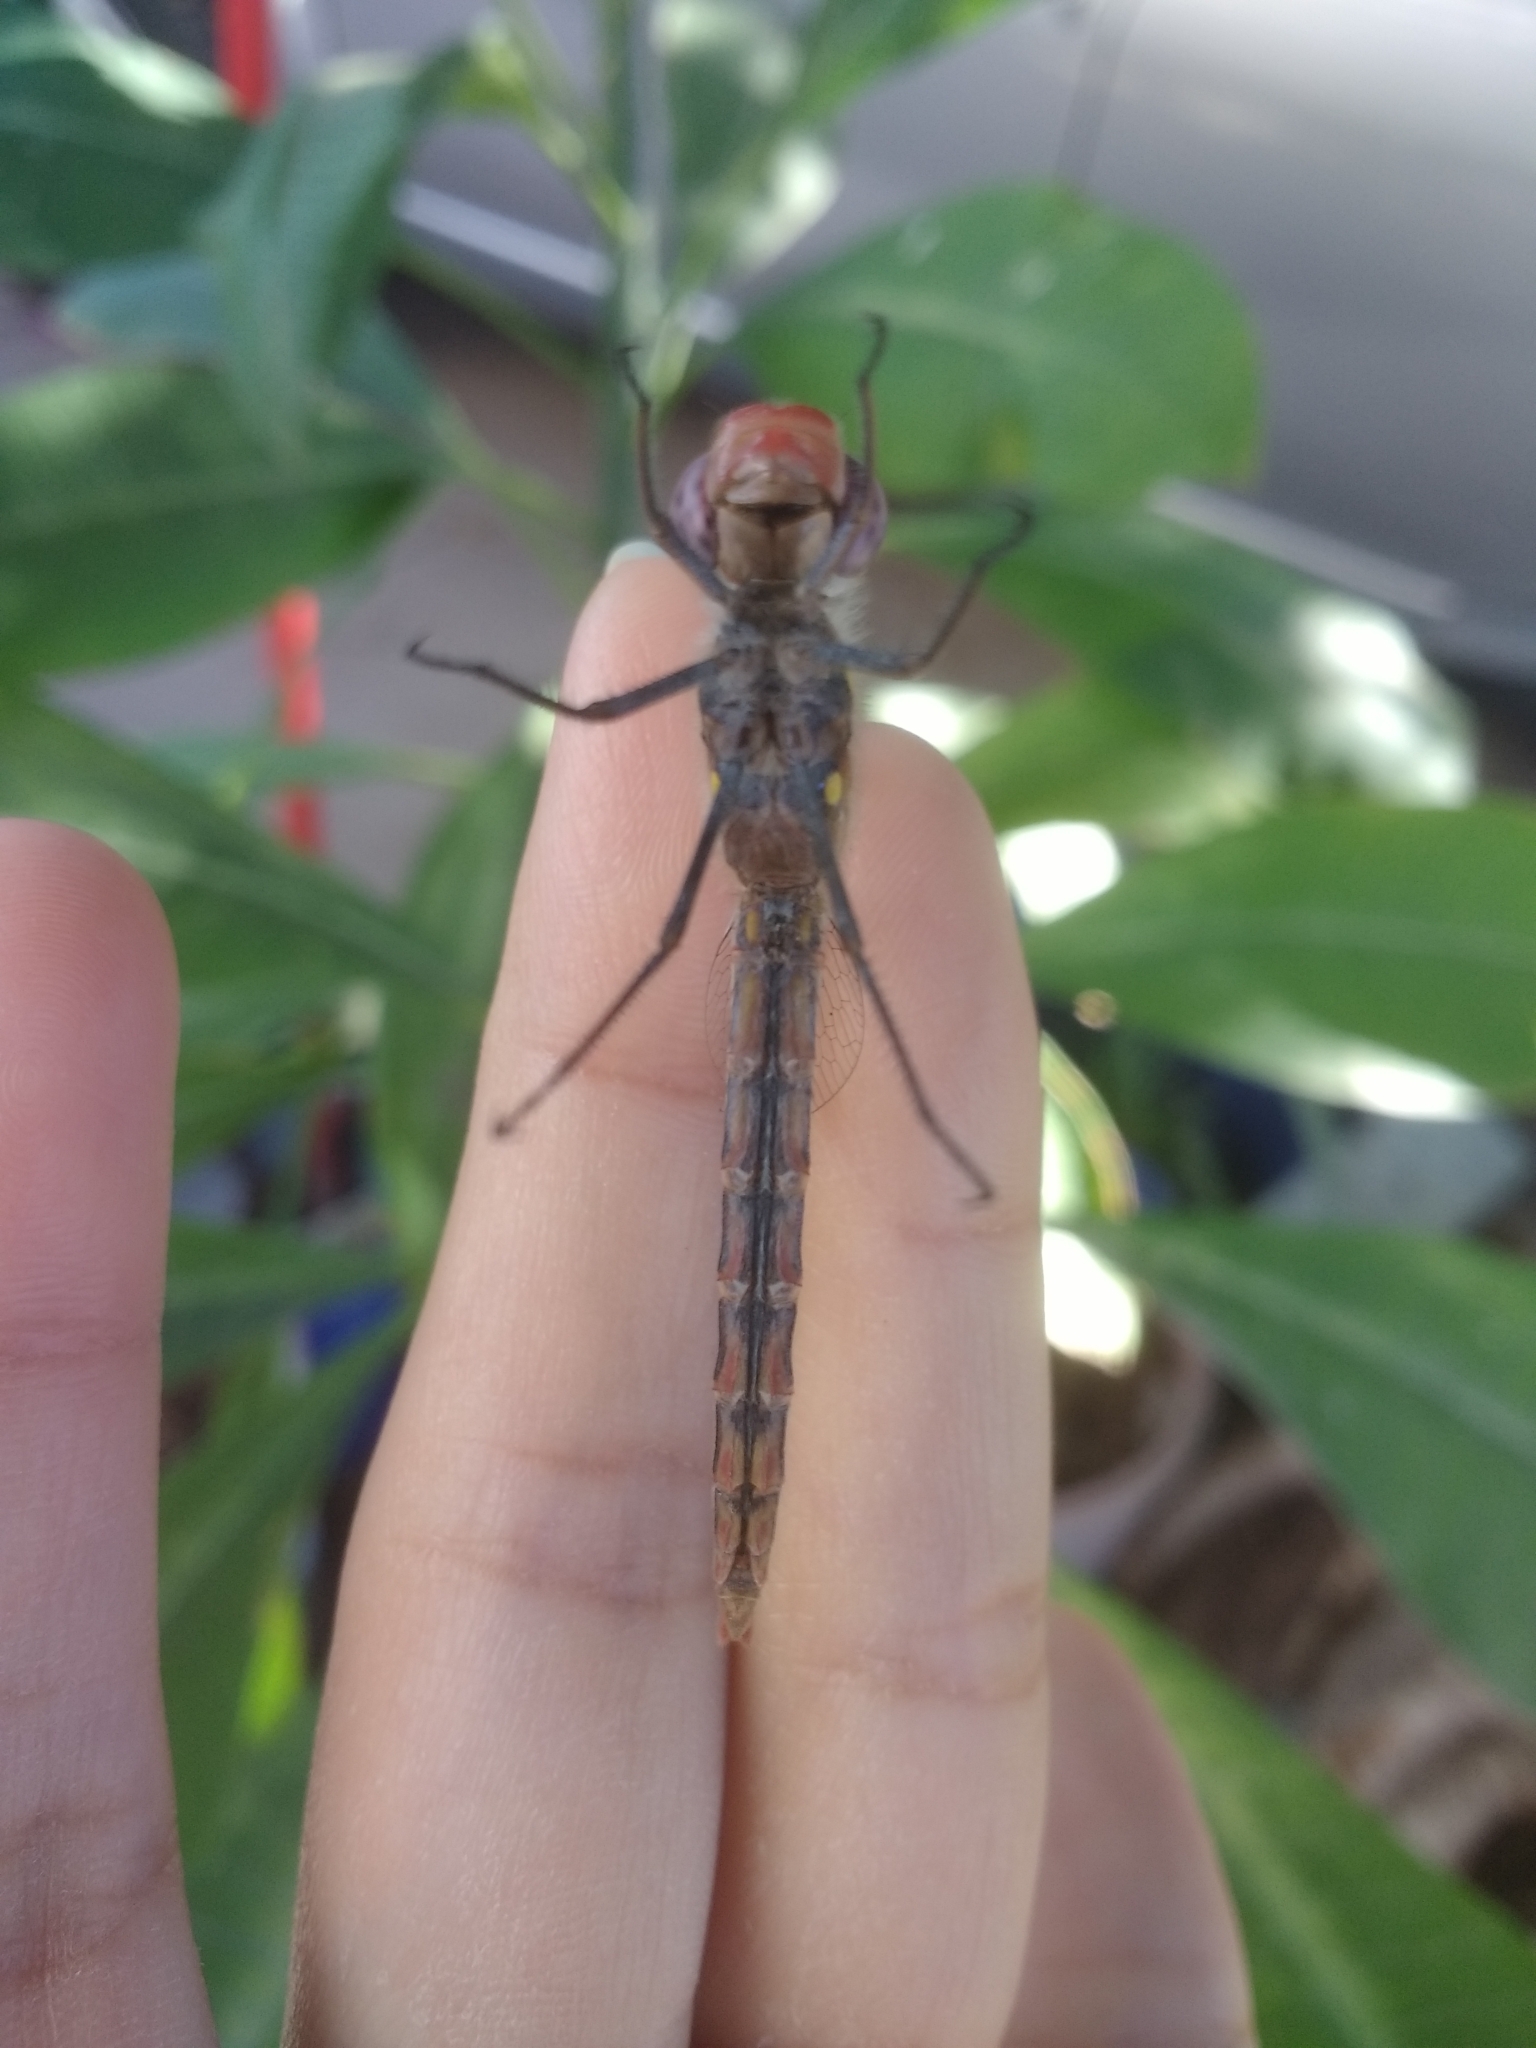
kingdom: Animalia
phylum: Arthropoda
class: Insecta
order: Odonata
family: Libellulidae
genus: Sympetrum
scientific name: Sympetrum corruptum
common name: Variegated meadowhawk
